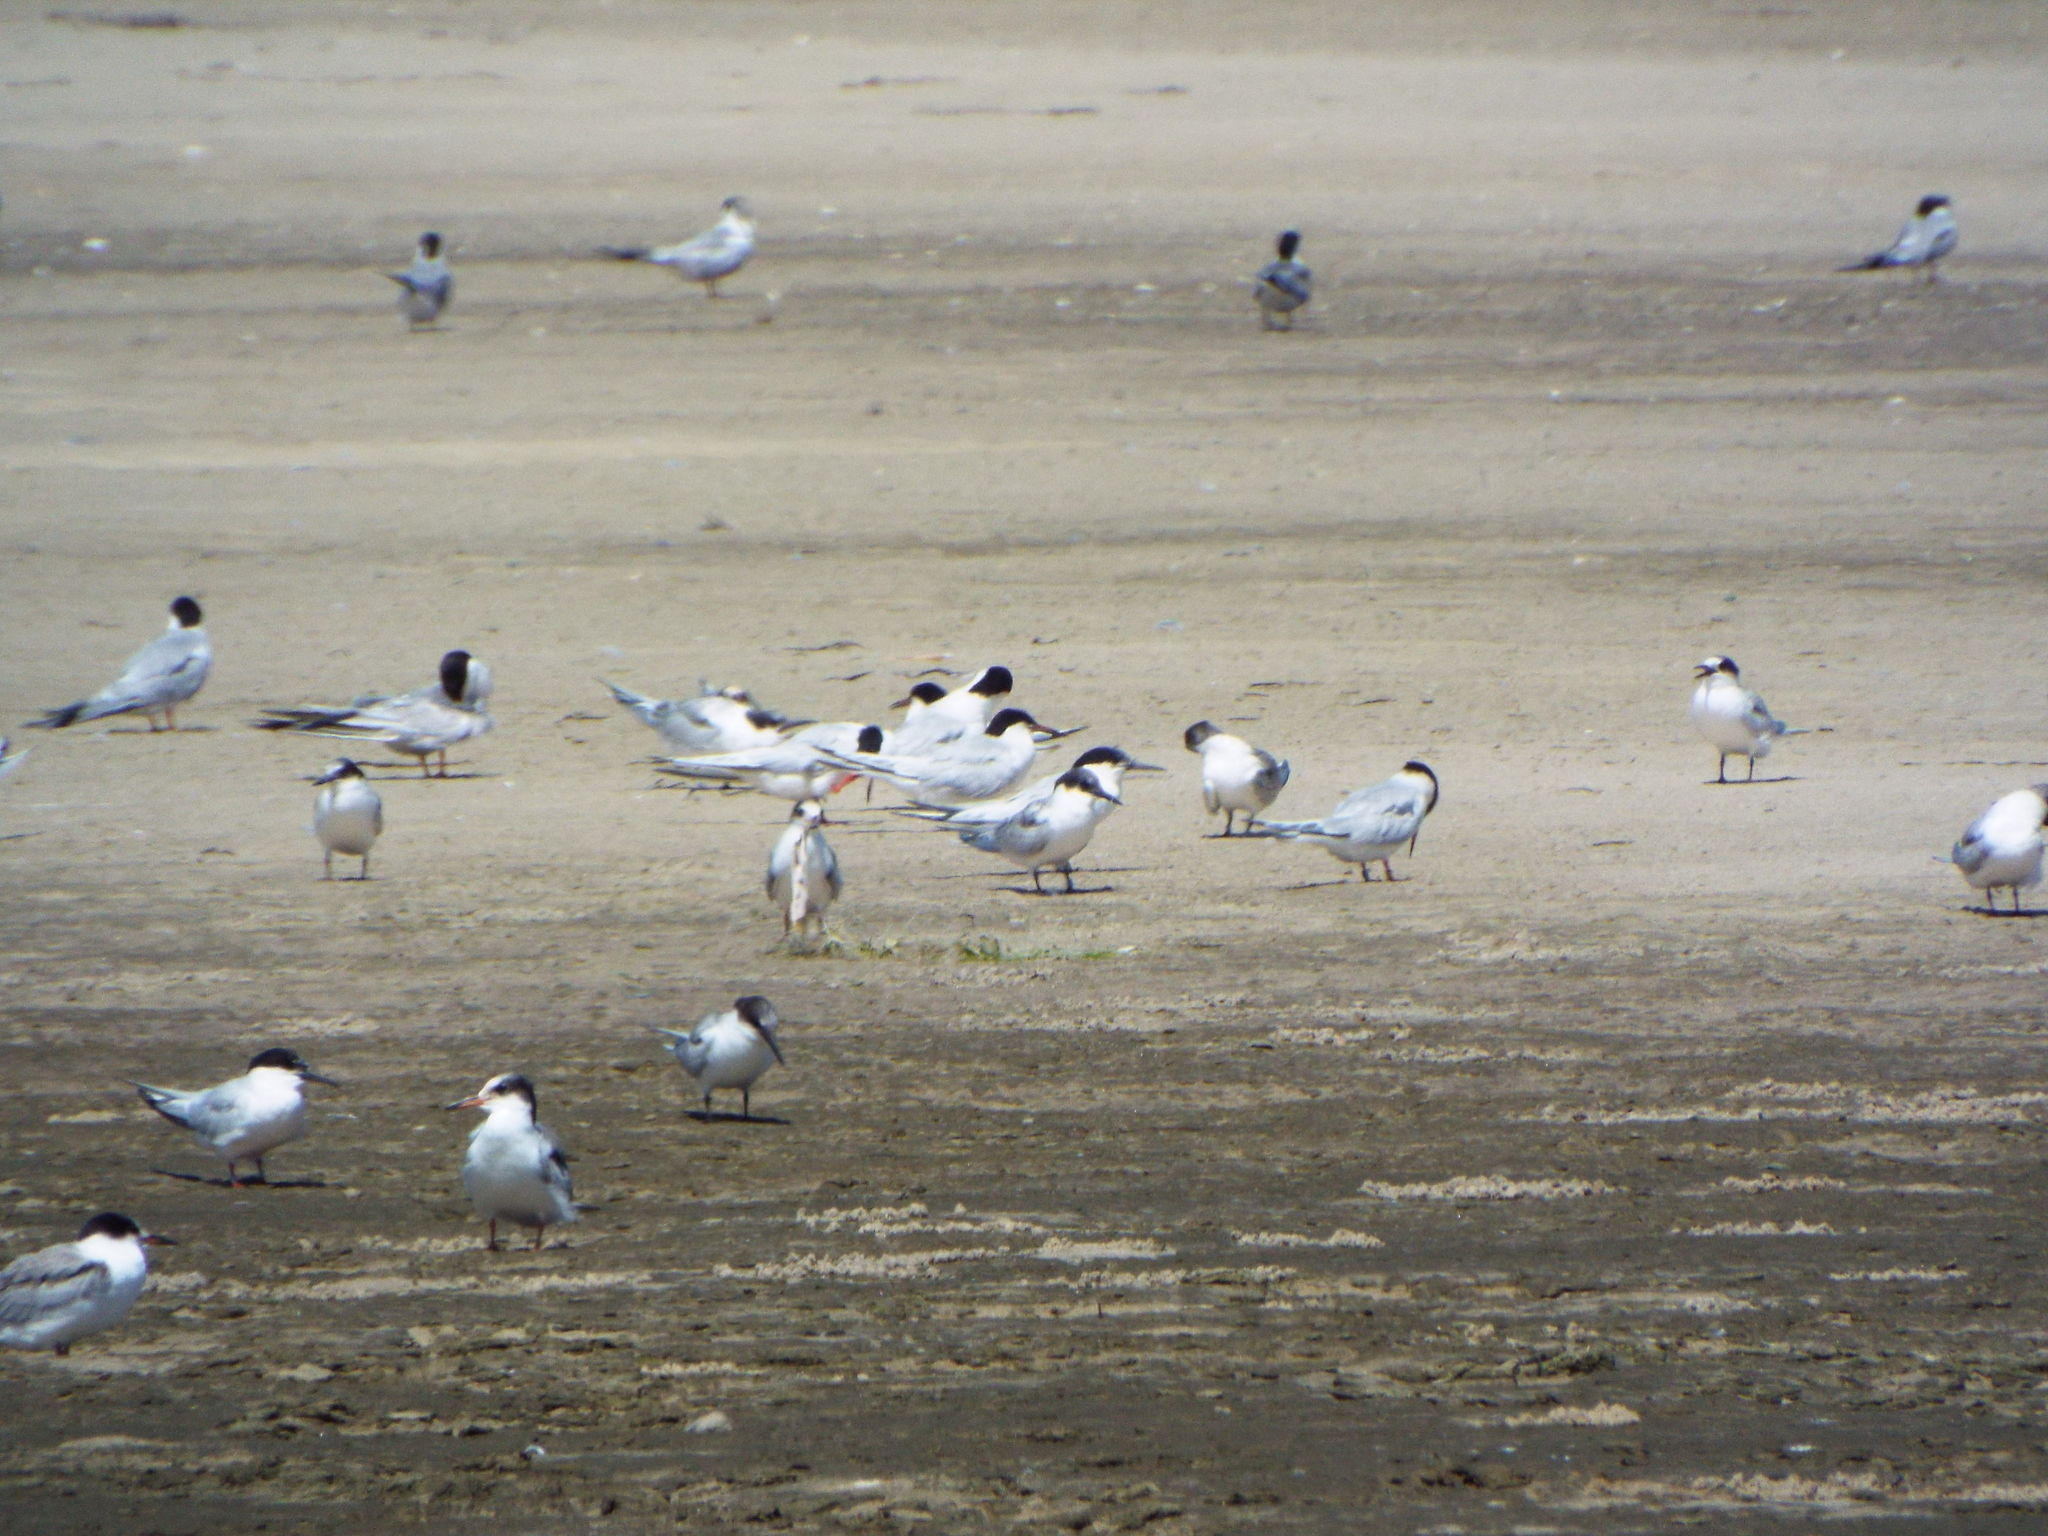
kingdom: Animalia
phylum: Chordata
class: Aves
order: Charadriiformes
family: Laridae
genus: Sterna
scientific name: Sterna dougallii
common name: Roseate tern
